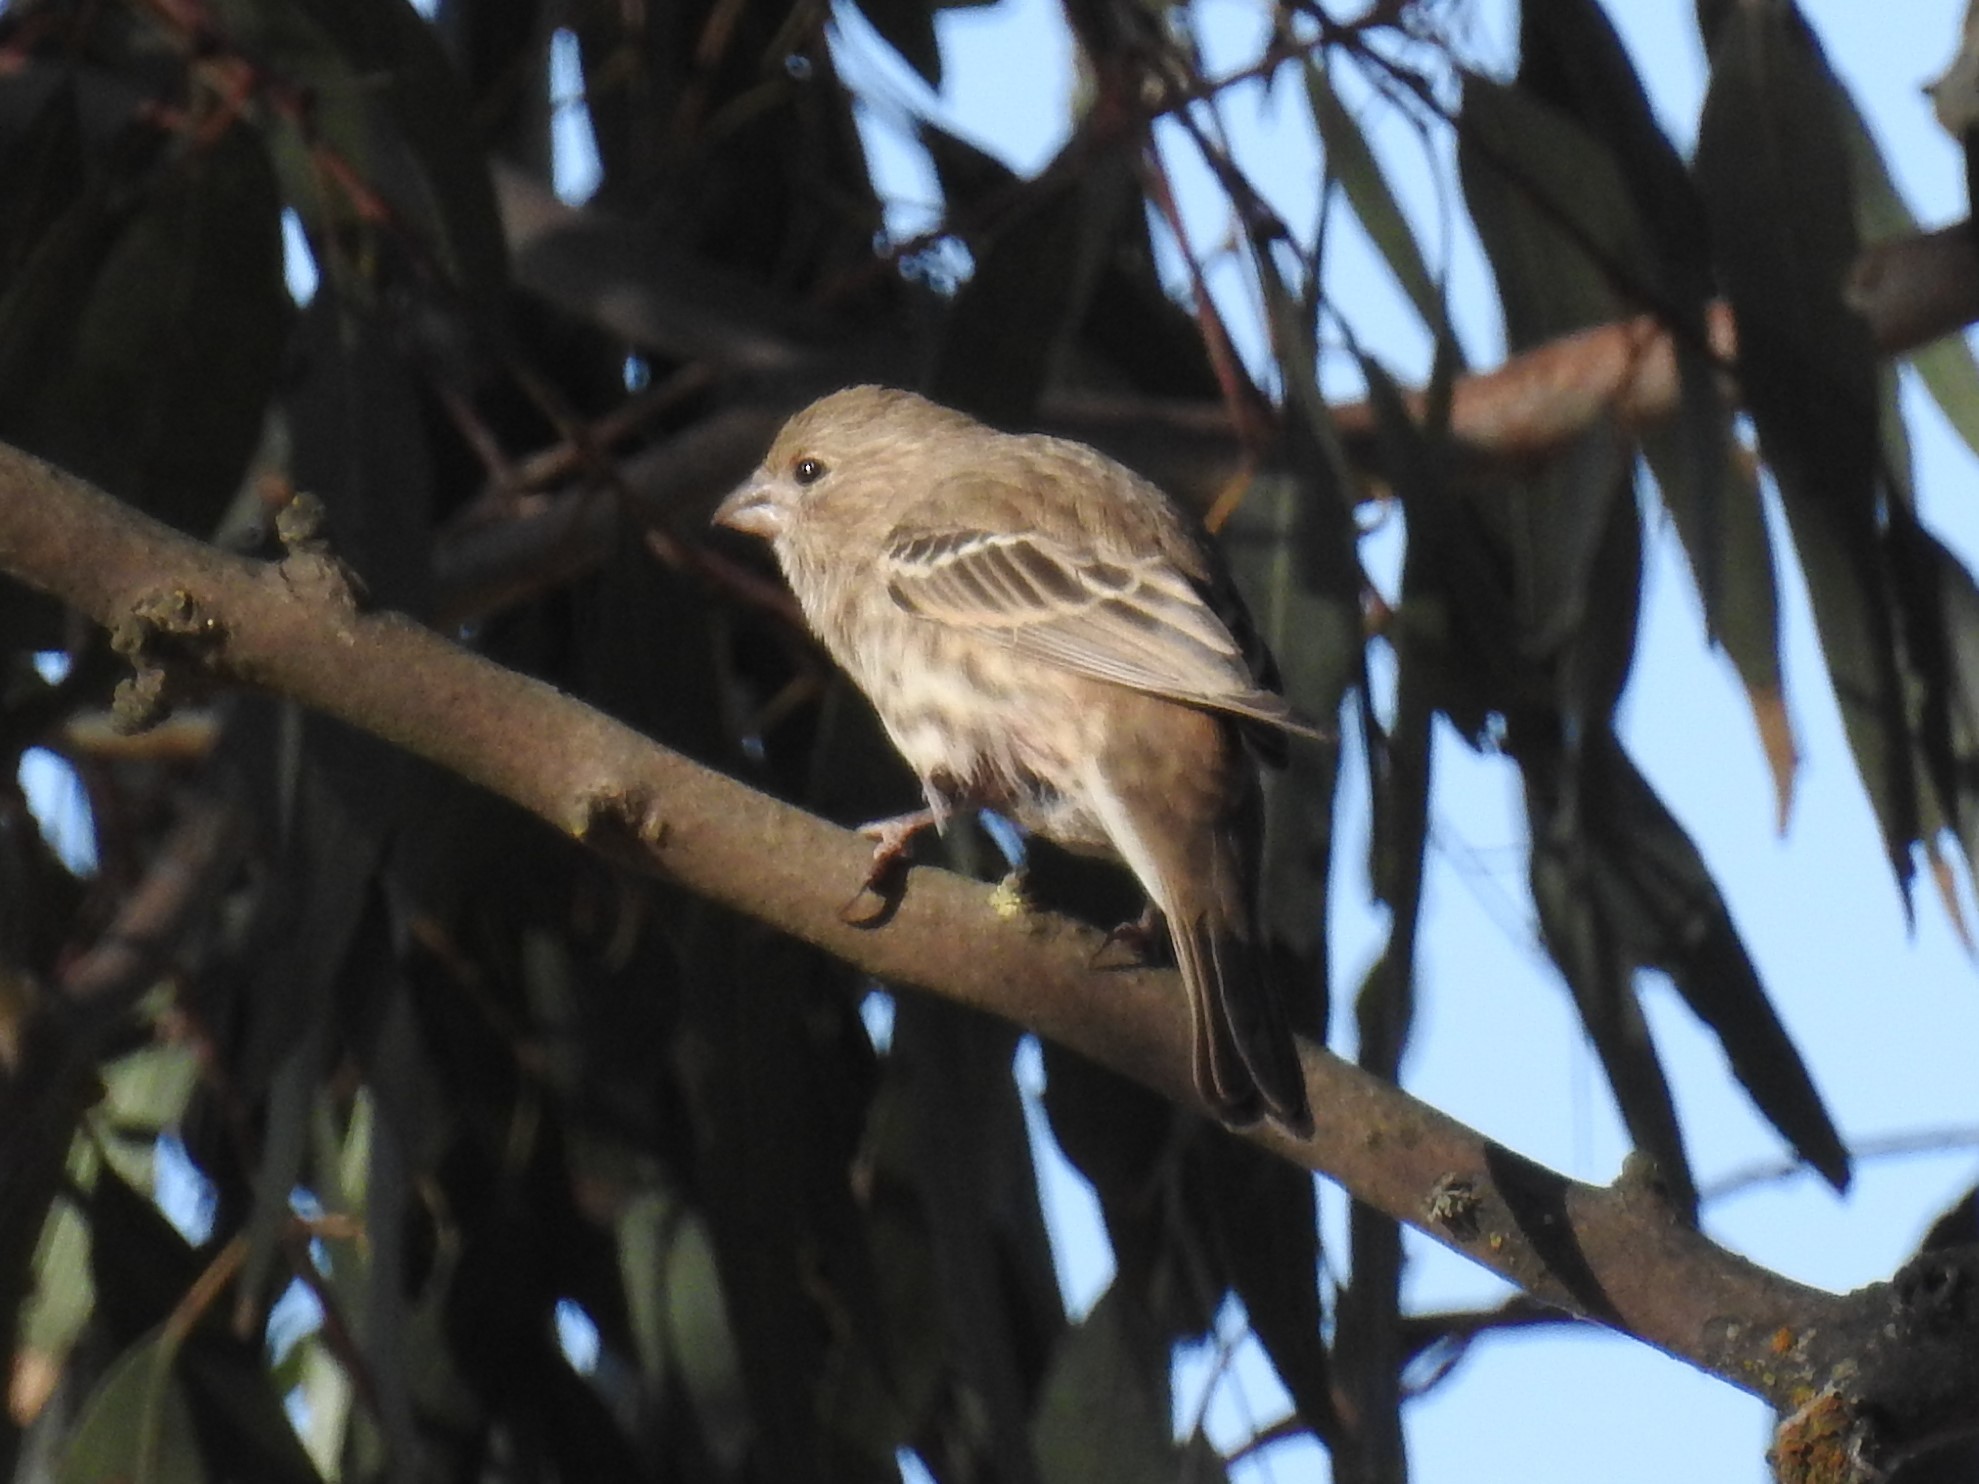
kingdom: Animalia
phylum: Chordata
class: Aves
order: Passeriformes
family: Fringillidae
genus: Haemorhous
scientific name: Haemorhous mexicanus
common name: House finch
